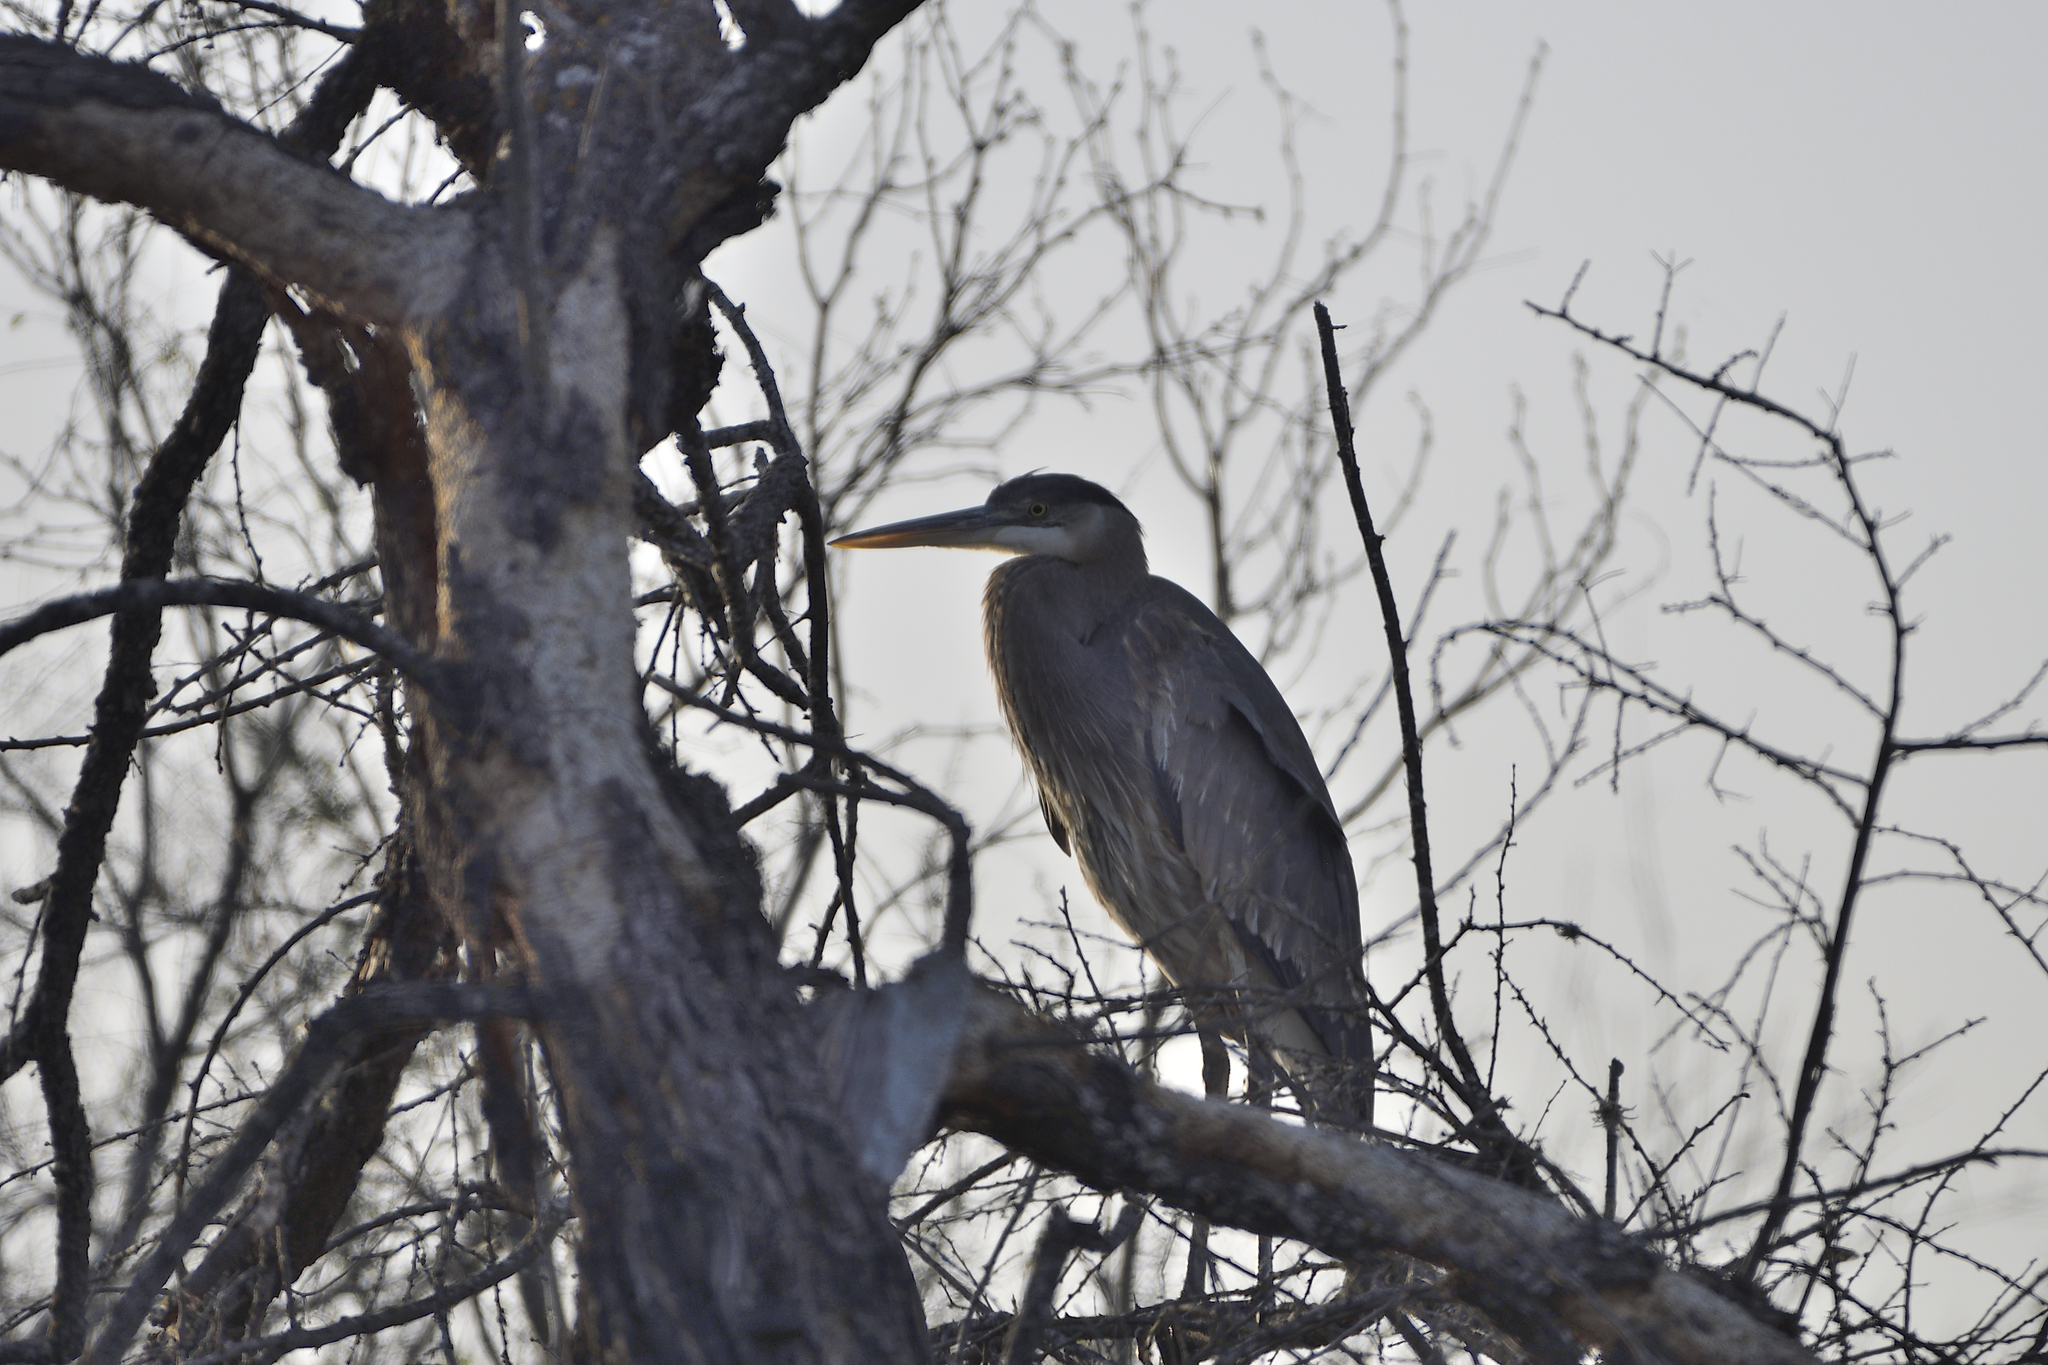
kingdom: Animalia
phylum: Chordata
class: Aves
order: Pelecaniformes
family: Ardeidae
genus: Ardea
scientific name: Ardea herodias
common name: Great blue heron
